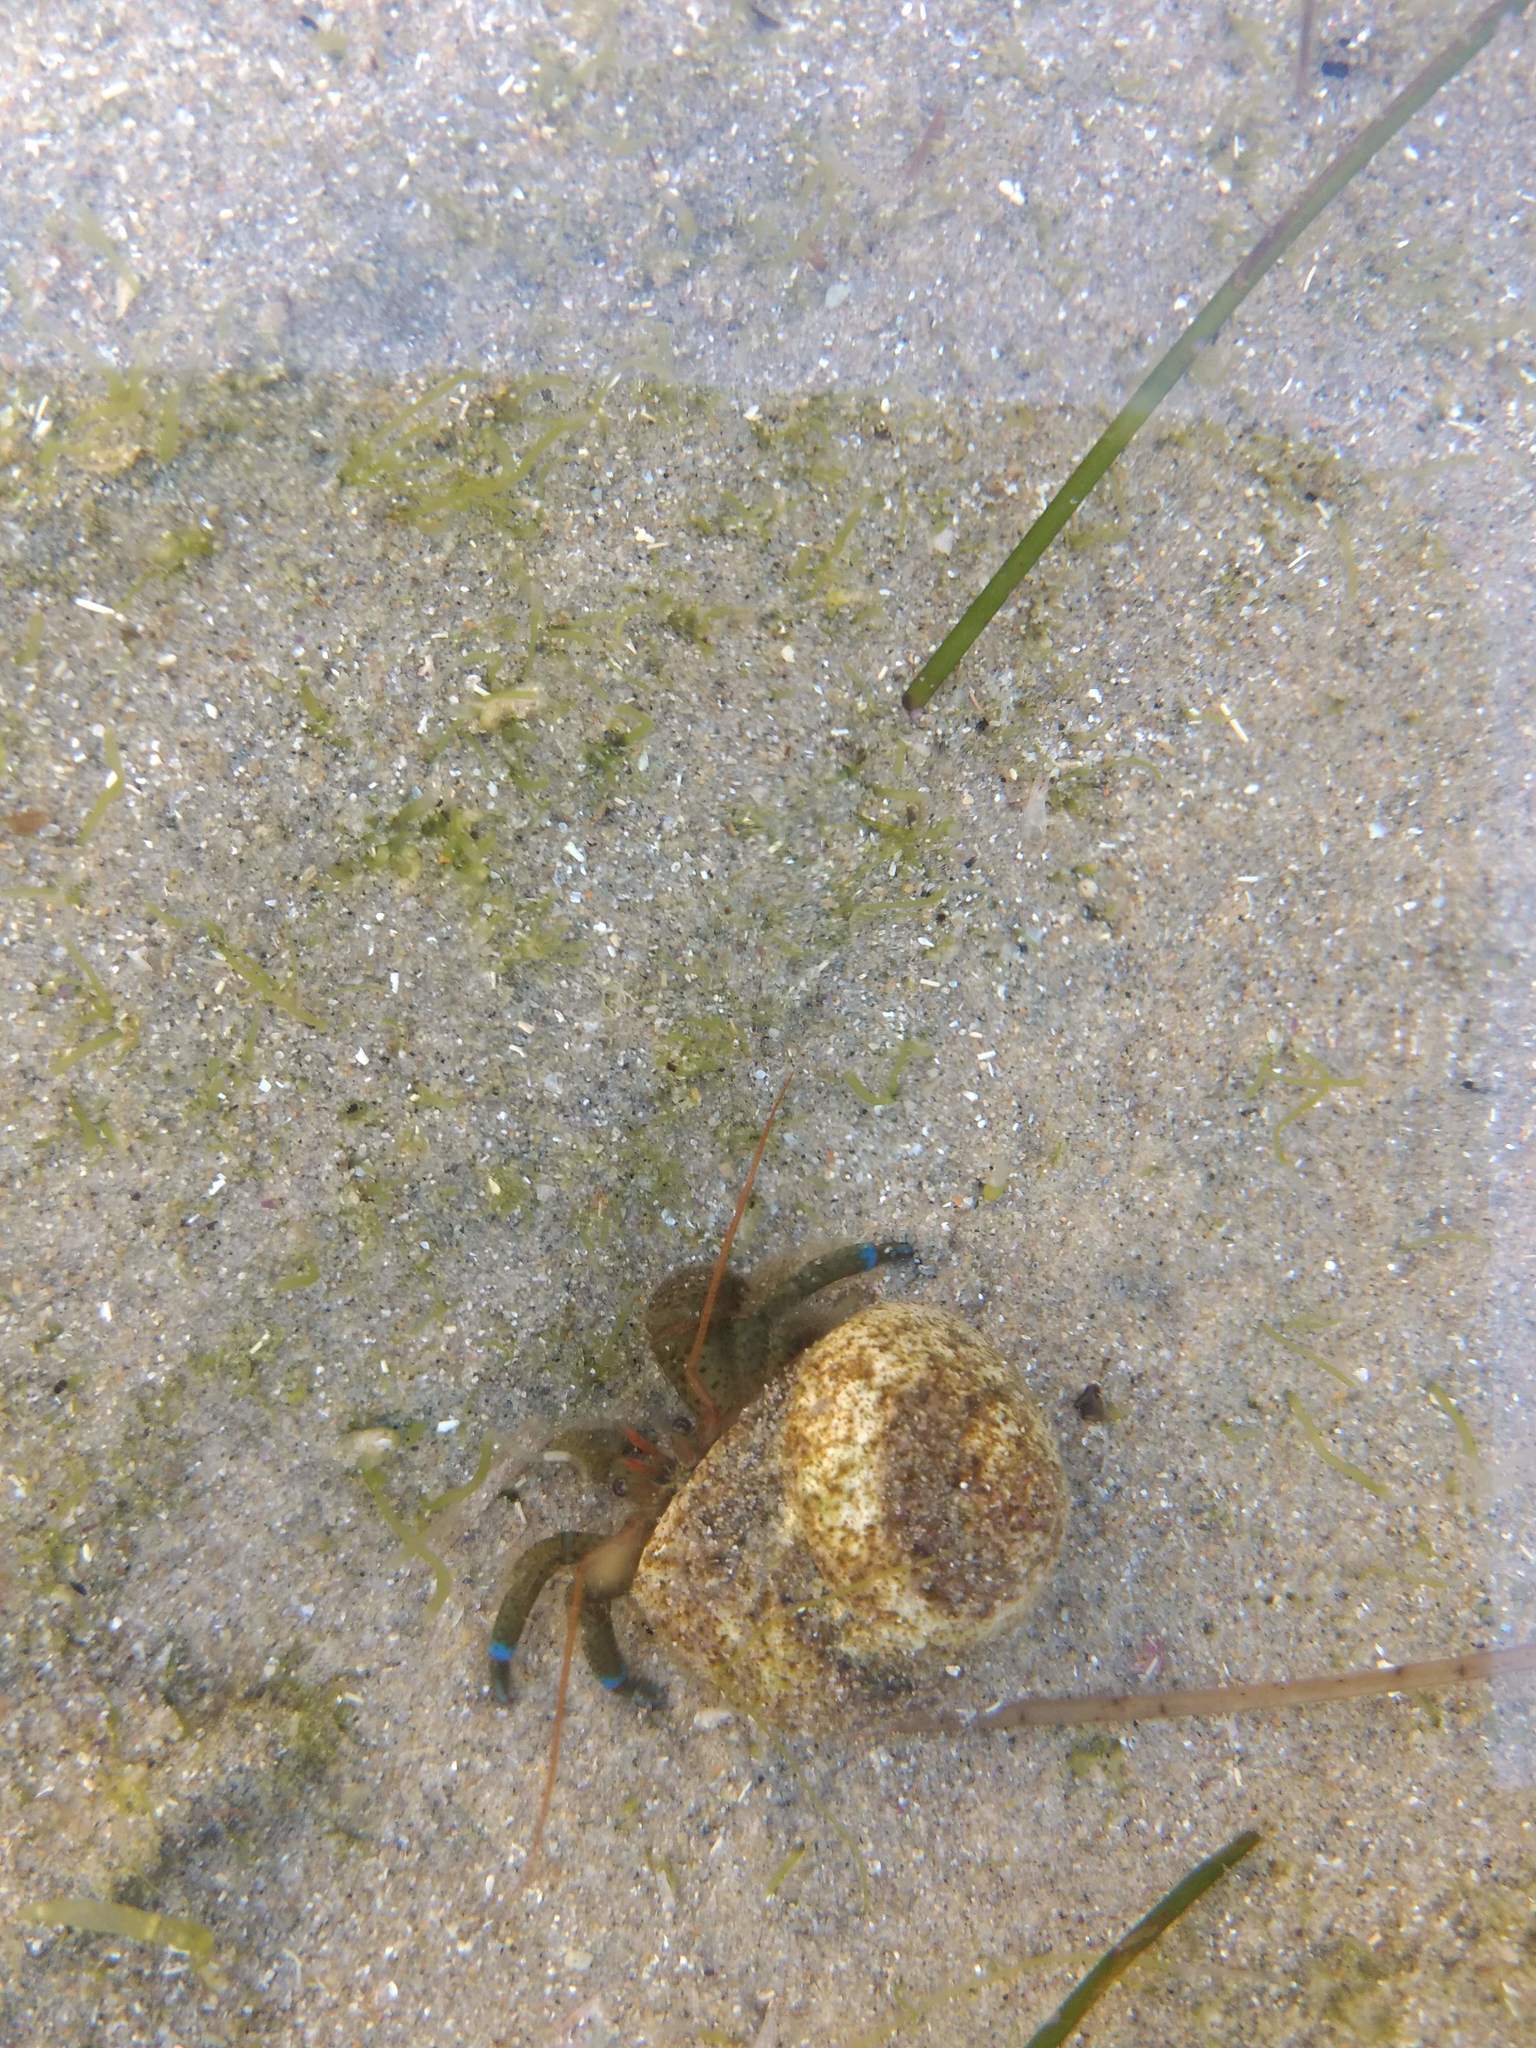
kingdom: Animalia
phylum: Arthropoda
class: Malacostraca
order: Decapoda
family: Paguridae
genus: Pagurus
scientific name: Pagurus samuelis
